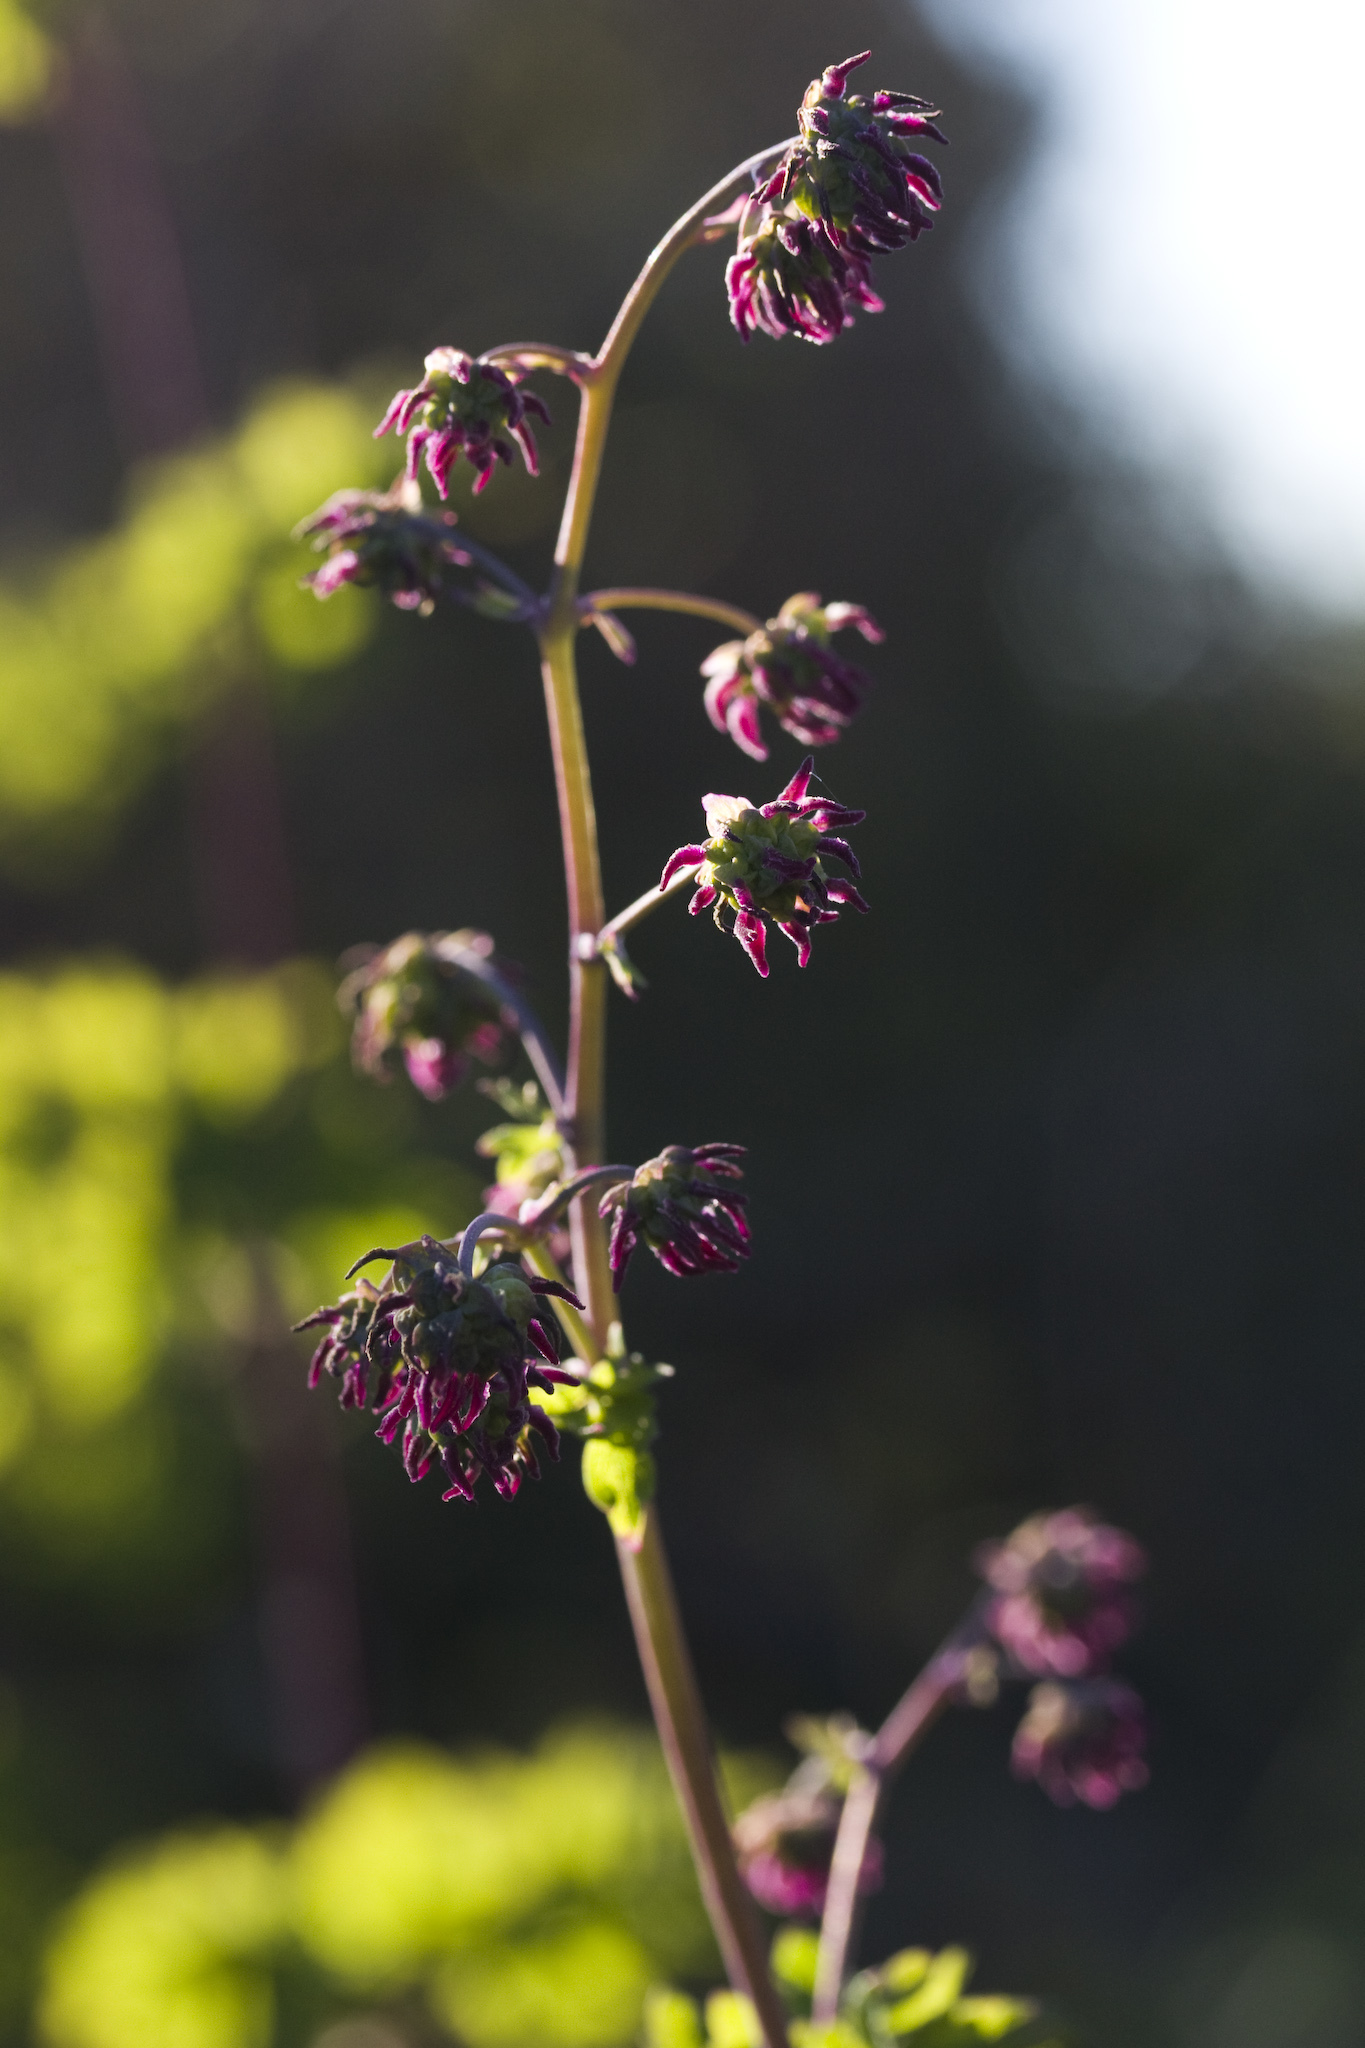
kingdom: Plantae
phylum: Tracheophyta
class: Magnoliopsida
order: Ranunculales
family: Ranunculaceae
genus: Thalictrum
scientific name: Thalictrum fendleri
